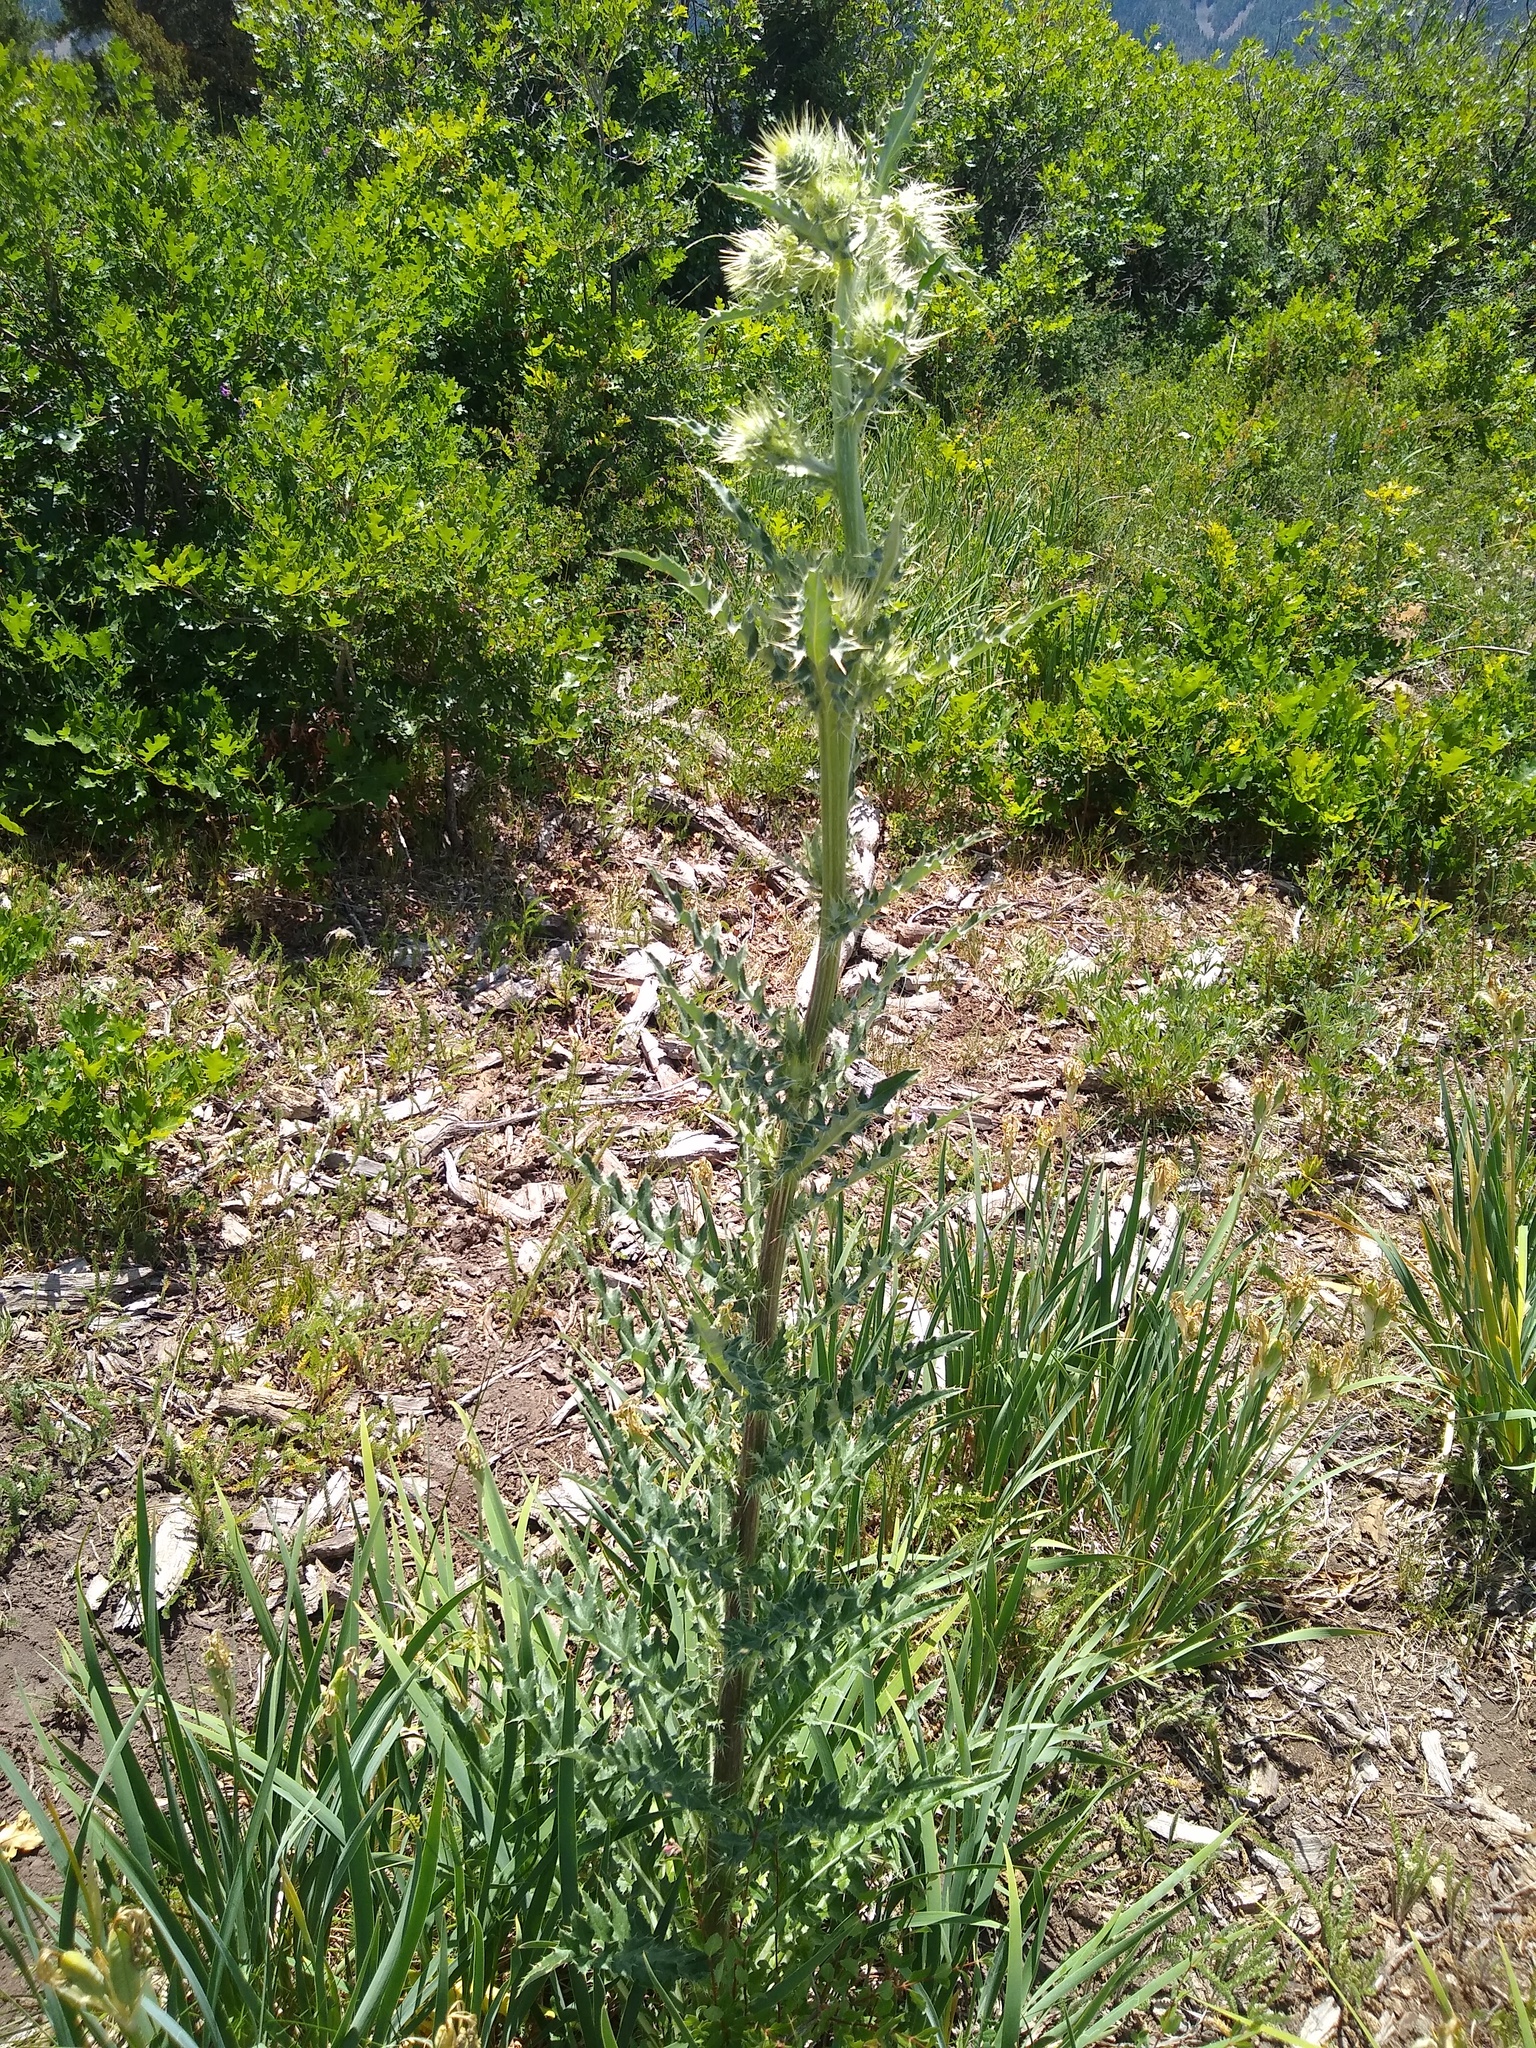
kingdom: Plantae
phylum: Tracheophyta
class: Magnoliopsida
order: Asterales
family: Asteraceae
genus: Cirsium
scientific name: Cirsium
